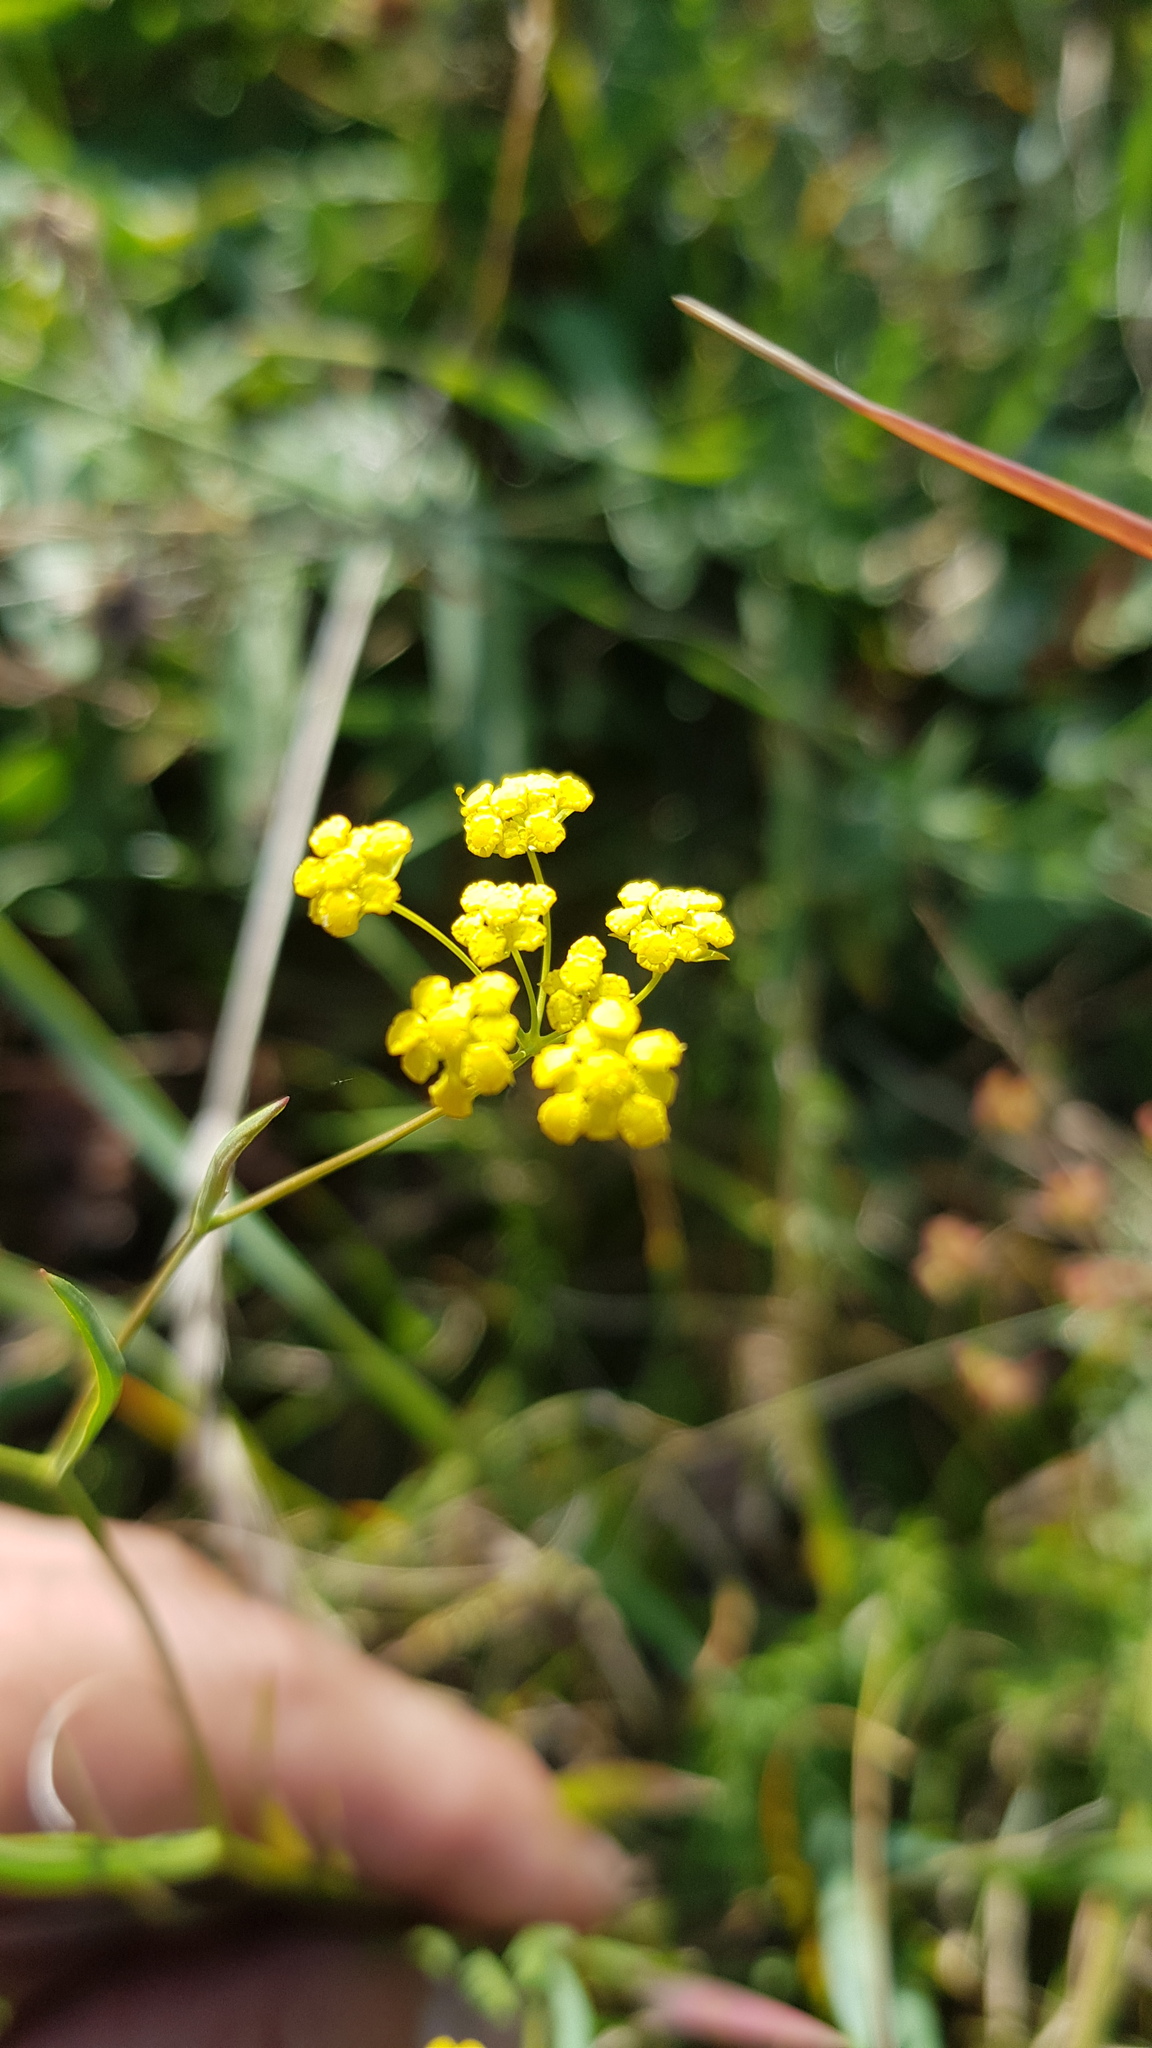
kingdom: Plantae
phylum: Tracheophyta
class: Magnoliopsida
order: Apiales
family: Apiaceae
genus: Bupleurum
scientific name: Bupleurum scorzonerifolium
